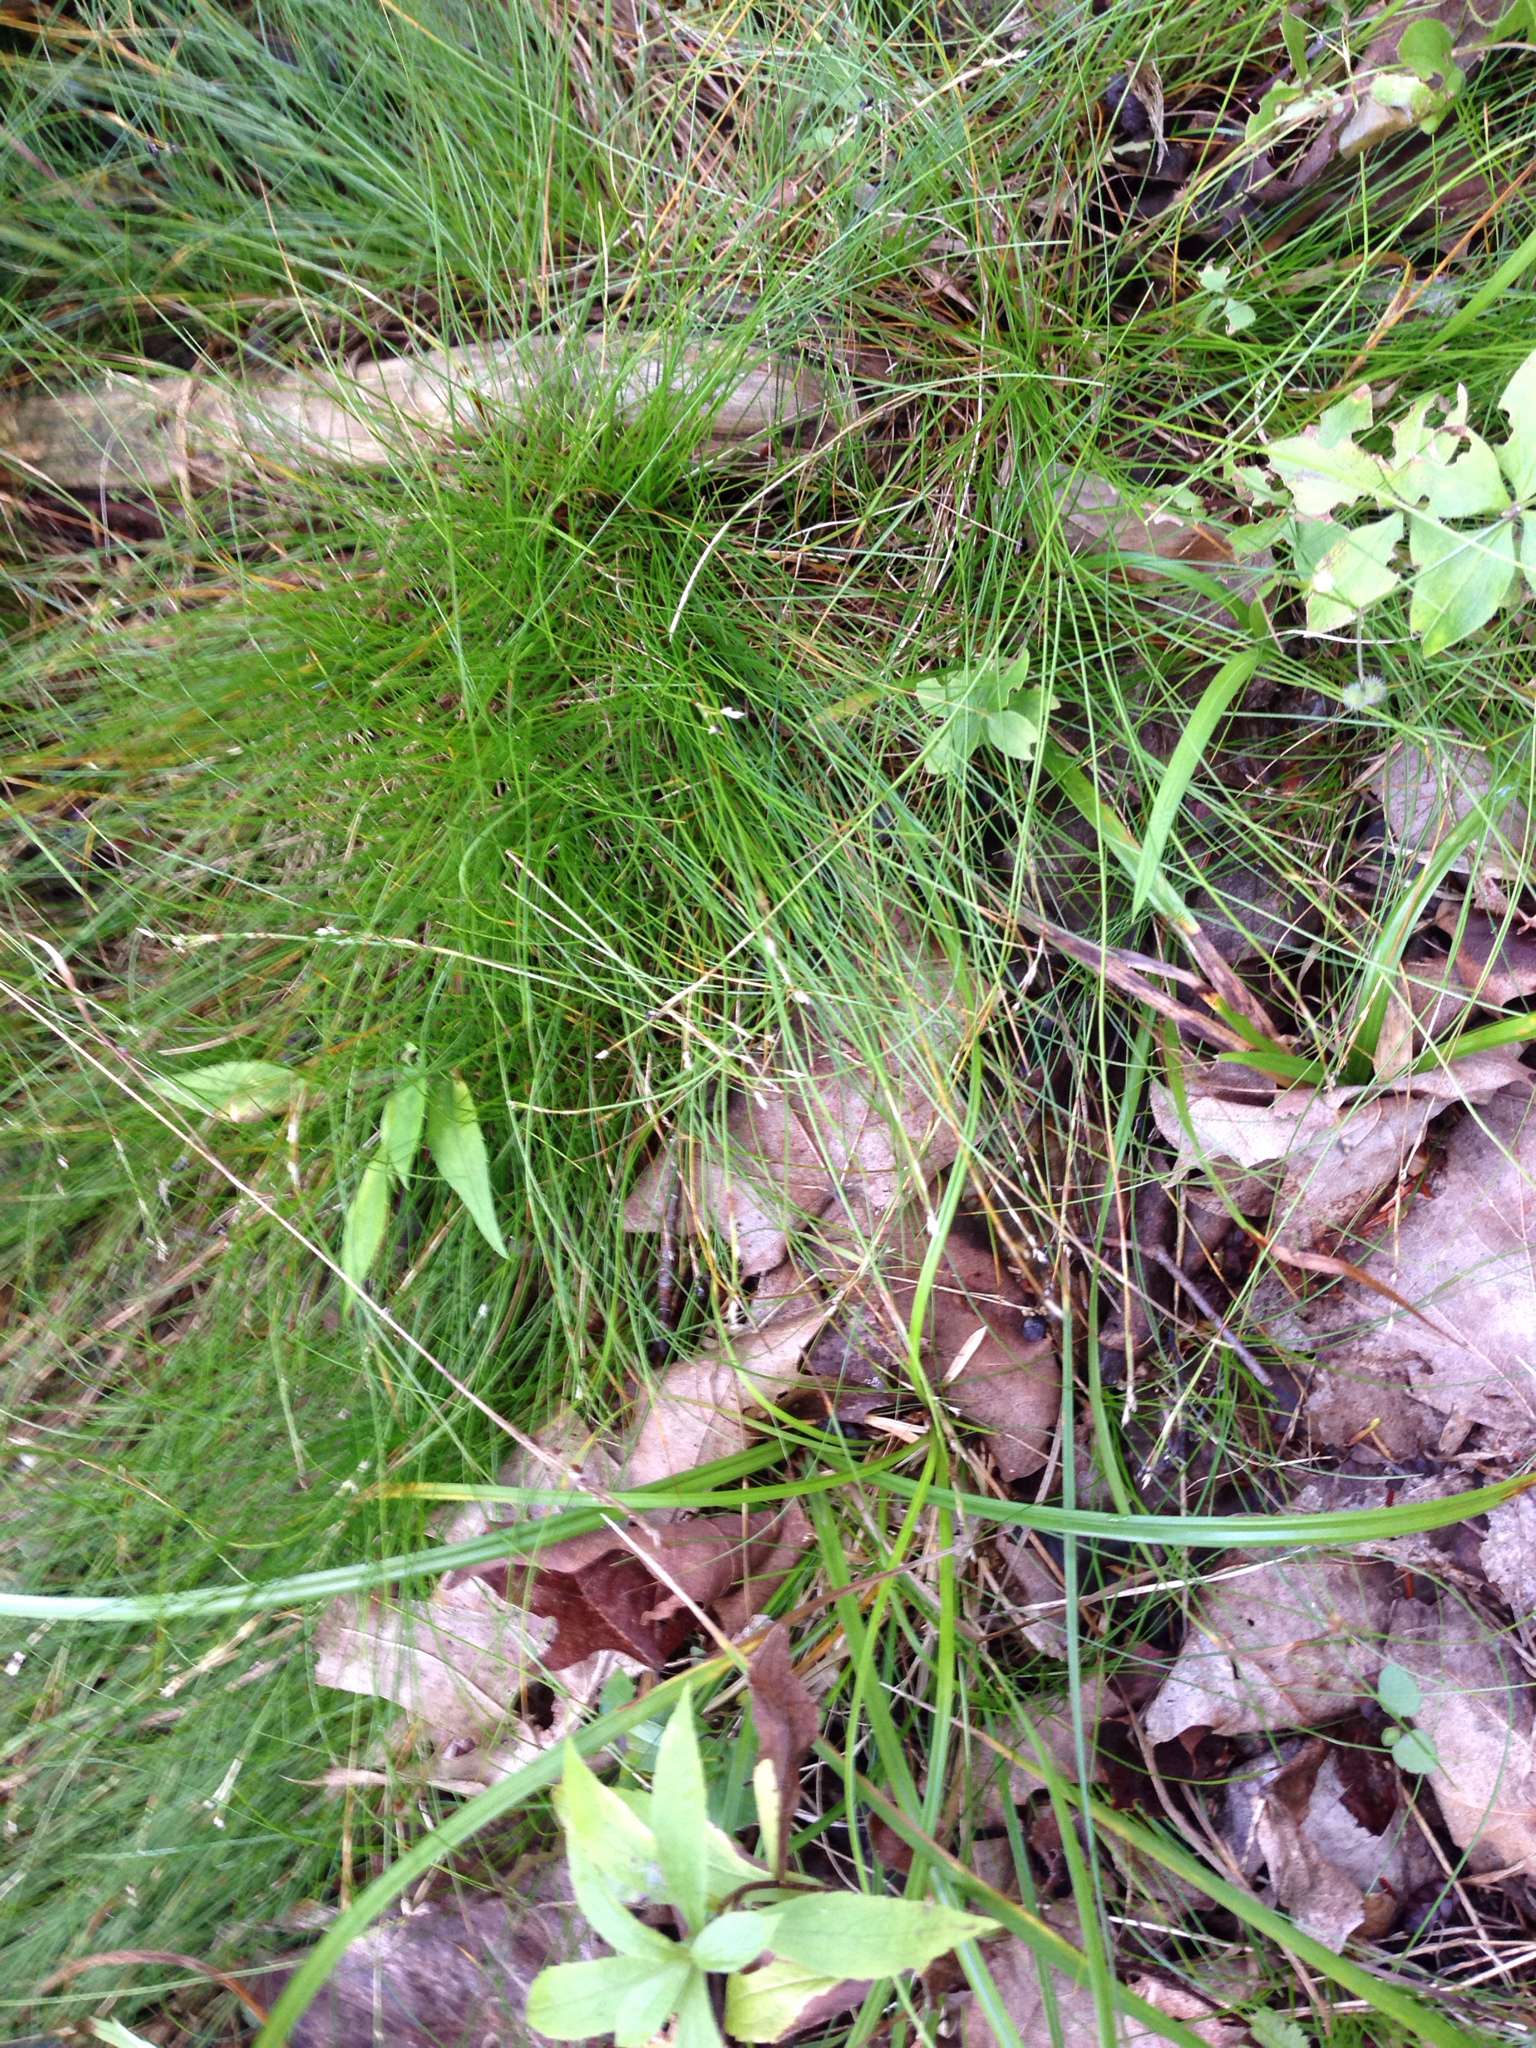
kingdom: Plantae
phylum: Tracheophyta
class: Liliopsida
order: Poales
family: Cyperaceae
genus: Carex
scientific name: Carex eburnea
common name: Bristle-leaved sedge
